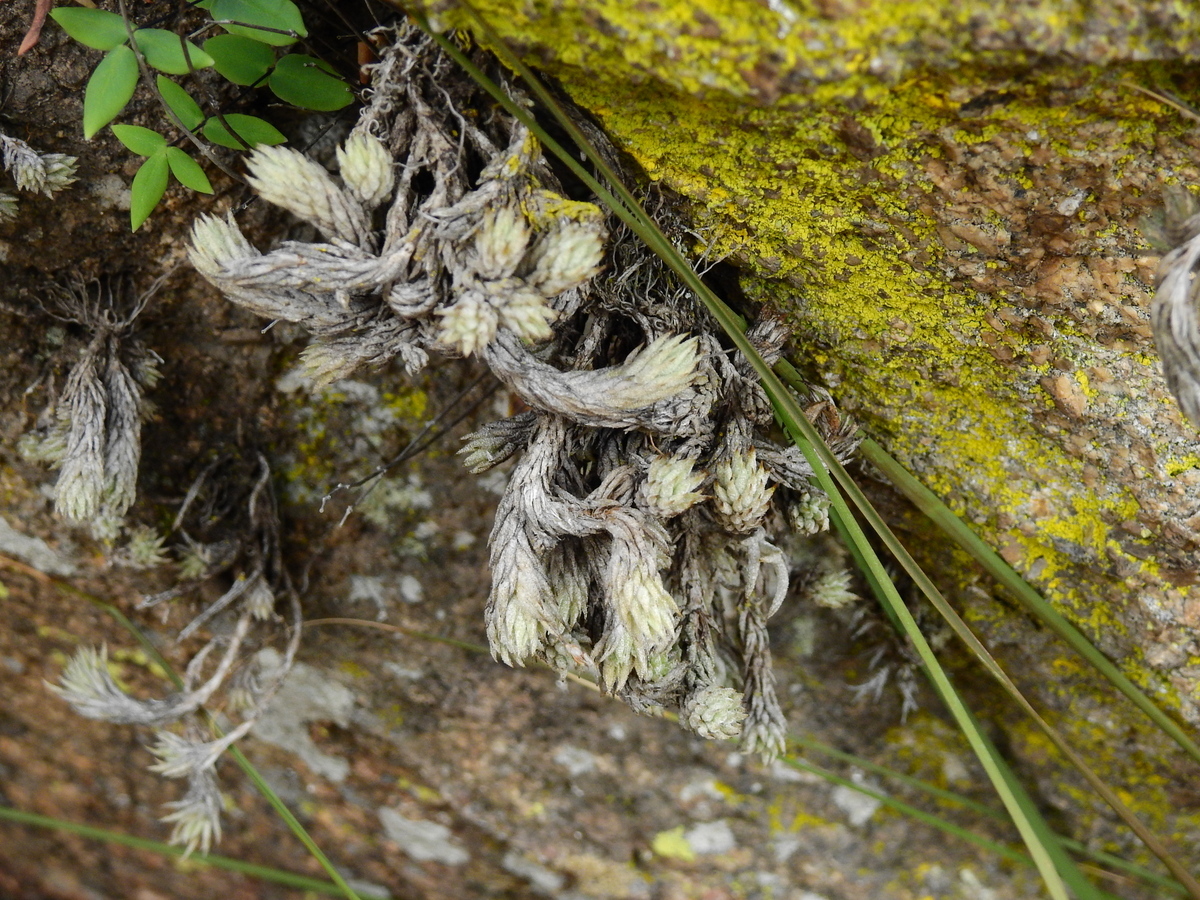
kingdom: Plantae
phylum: Tracheophyta
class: Liliopsida
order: Poales
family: Bromeliaceae
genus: Tillandsia
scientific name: Tillandsia pedicellata
